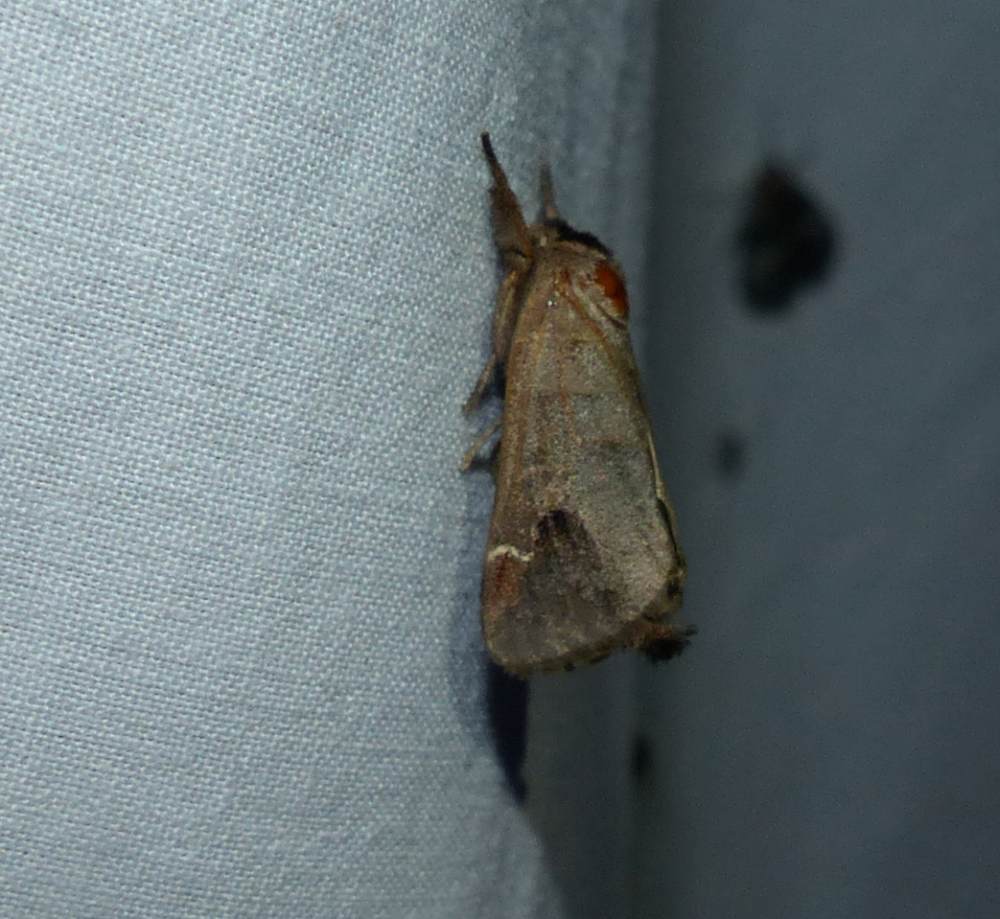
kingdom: Animalia
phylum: Arthropoda
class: Insecta
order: Lepidoptera
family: Notodontidae
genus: Clostera
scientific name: Clostera albosigma
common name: Sigmoid prominent
